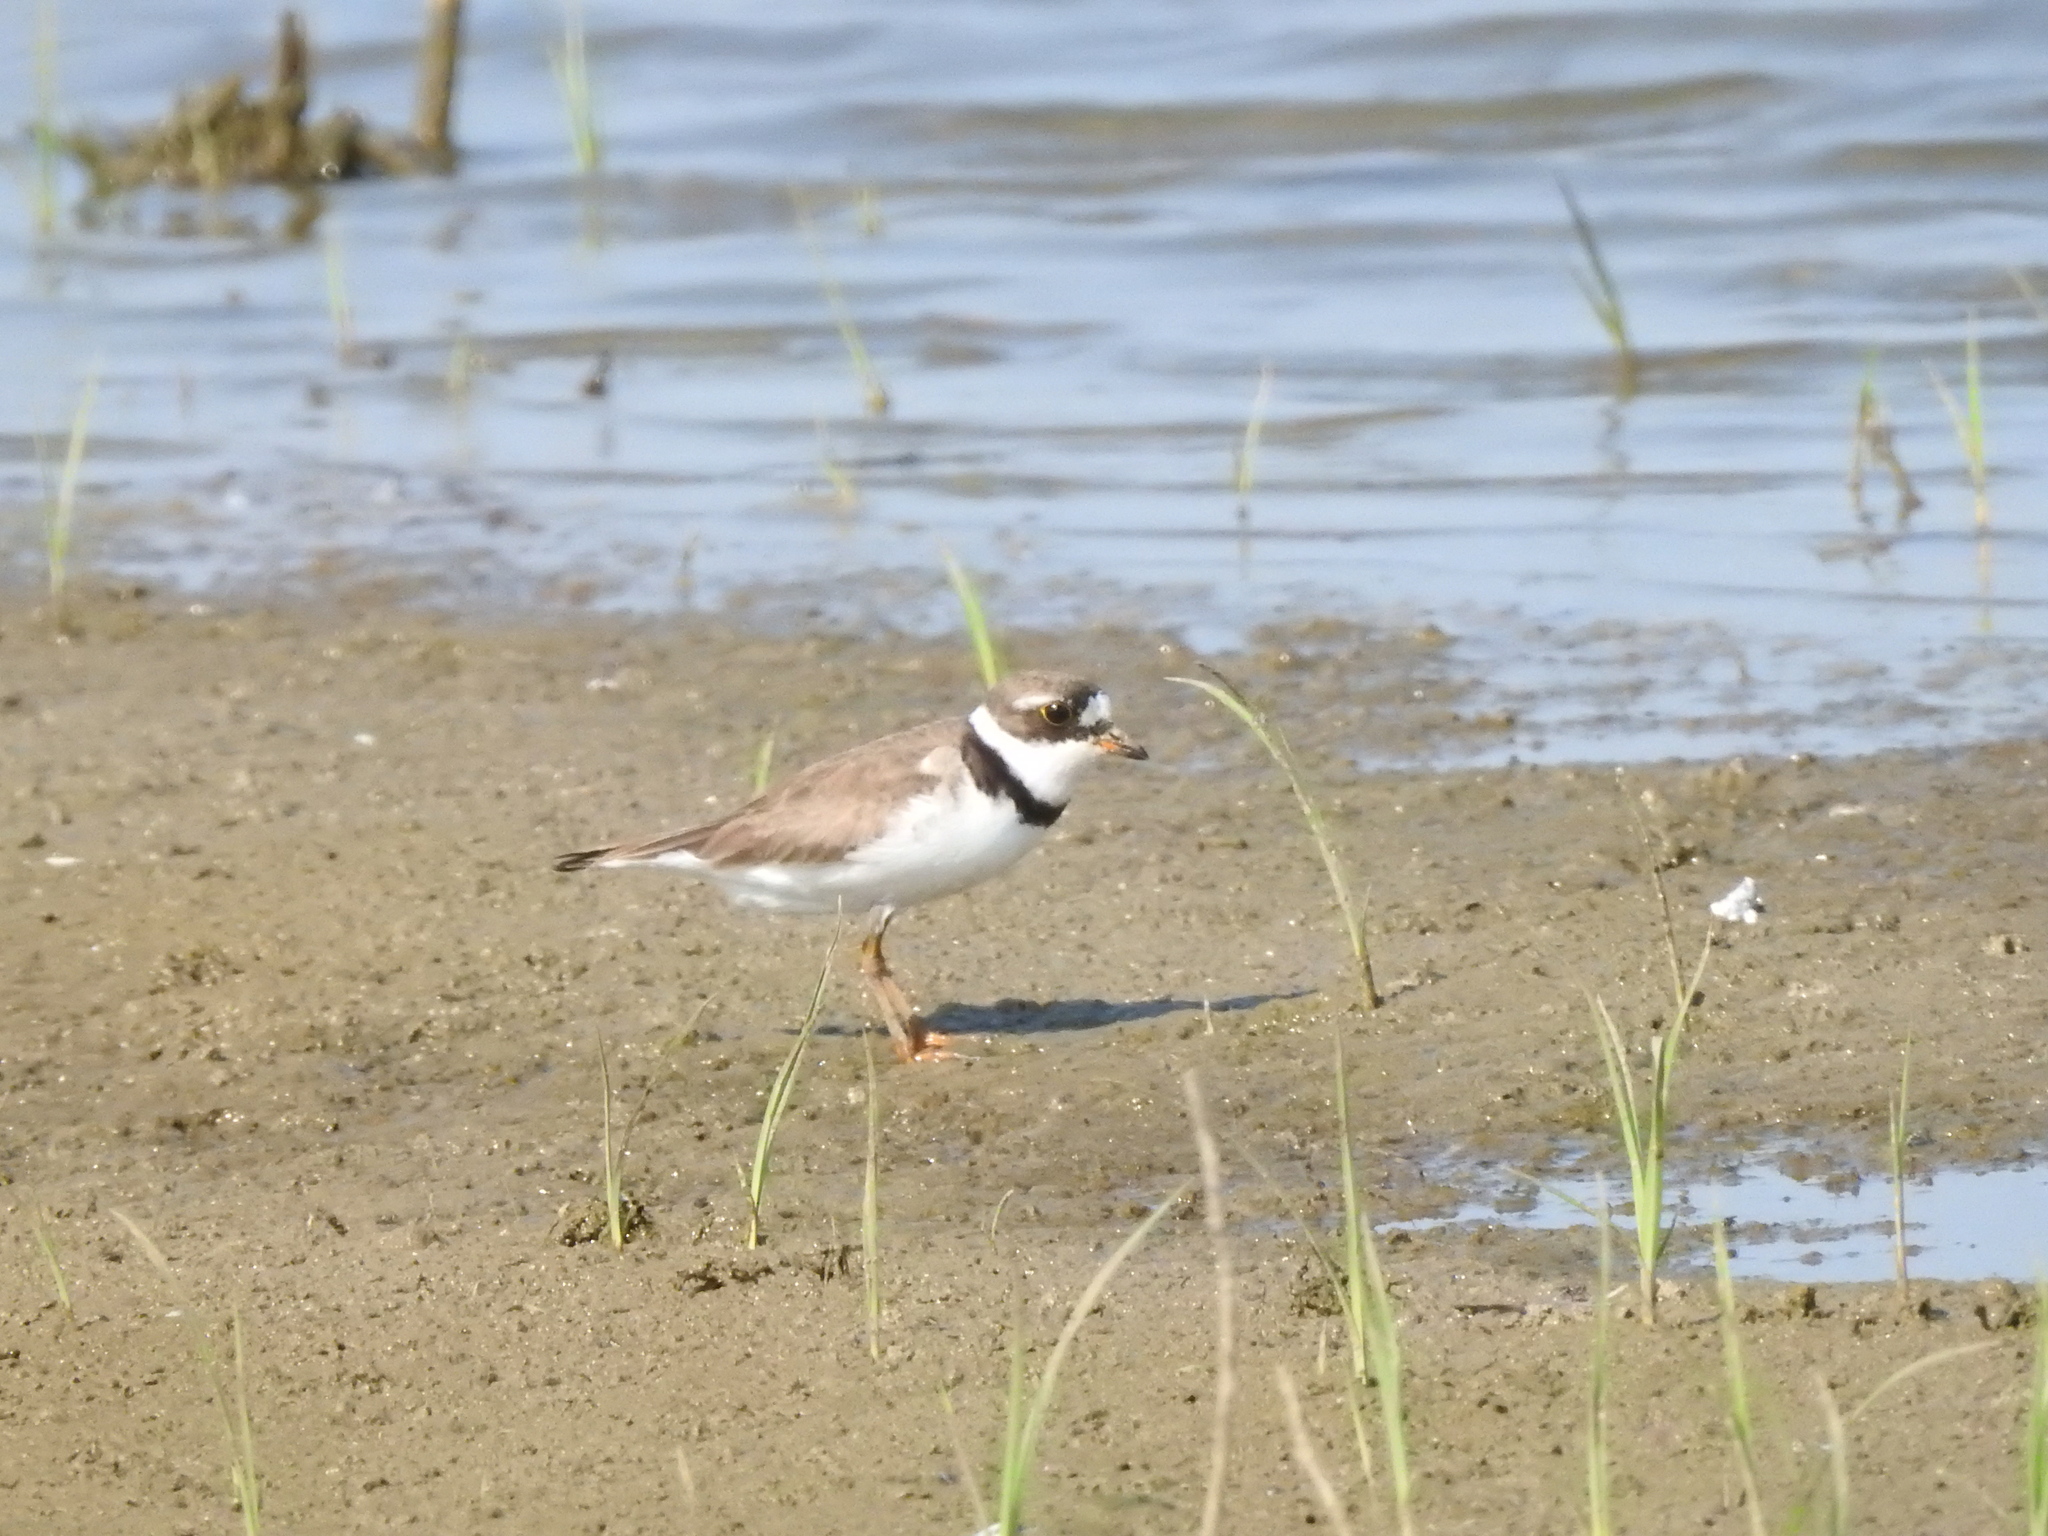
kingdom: Animalia
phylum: Chordata
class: Aves
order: Charadriiformes
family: Charadriidae
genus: Charadrius
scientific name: Charadrius semipalmatus
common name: Semipalmated plover
